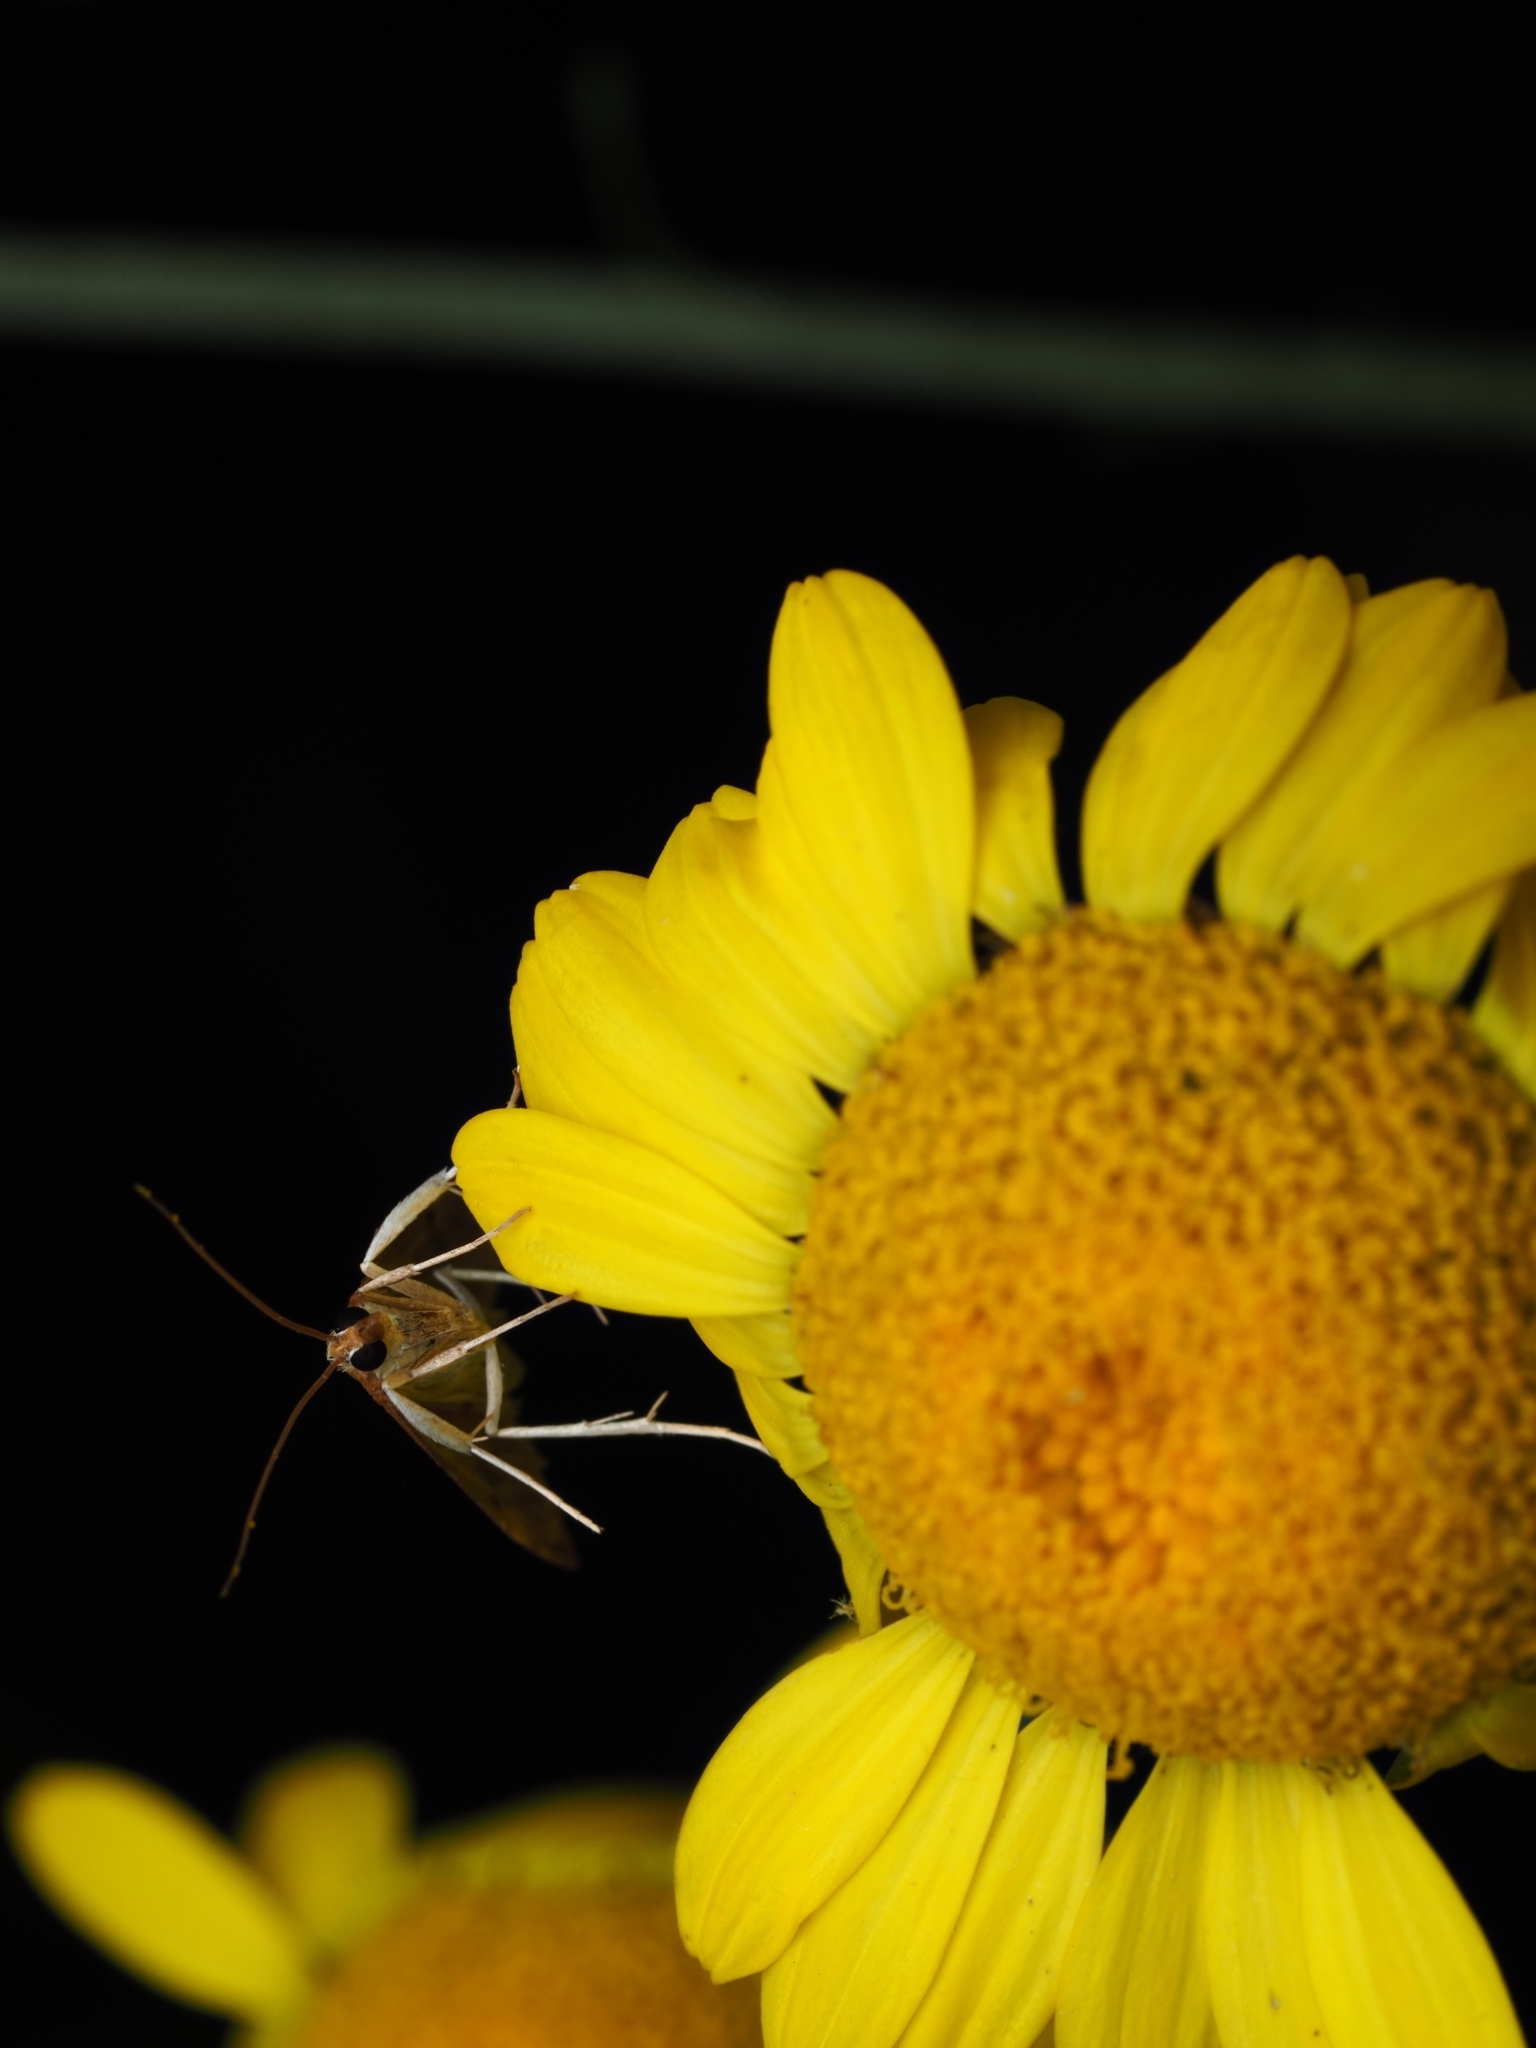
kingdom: Animalia
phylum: Arthropoda
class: Insecta
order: Lepidoptera
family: Crambidae
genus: Udea
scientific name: Udea ferrugalis
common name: Rusty dot
